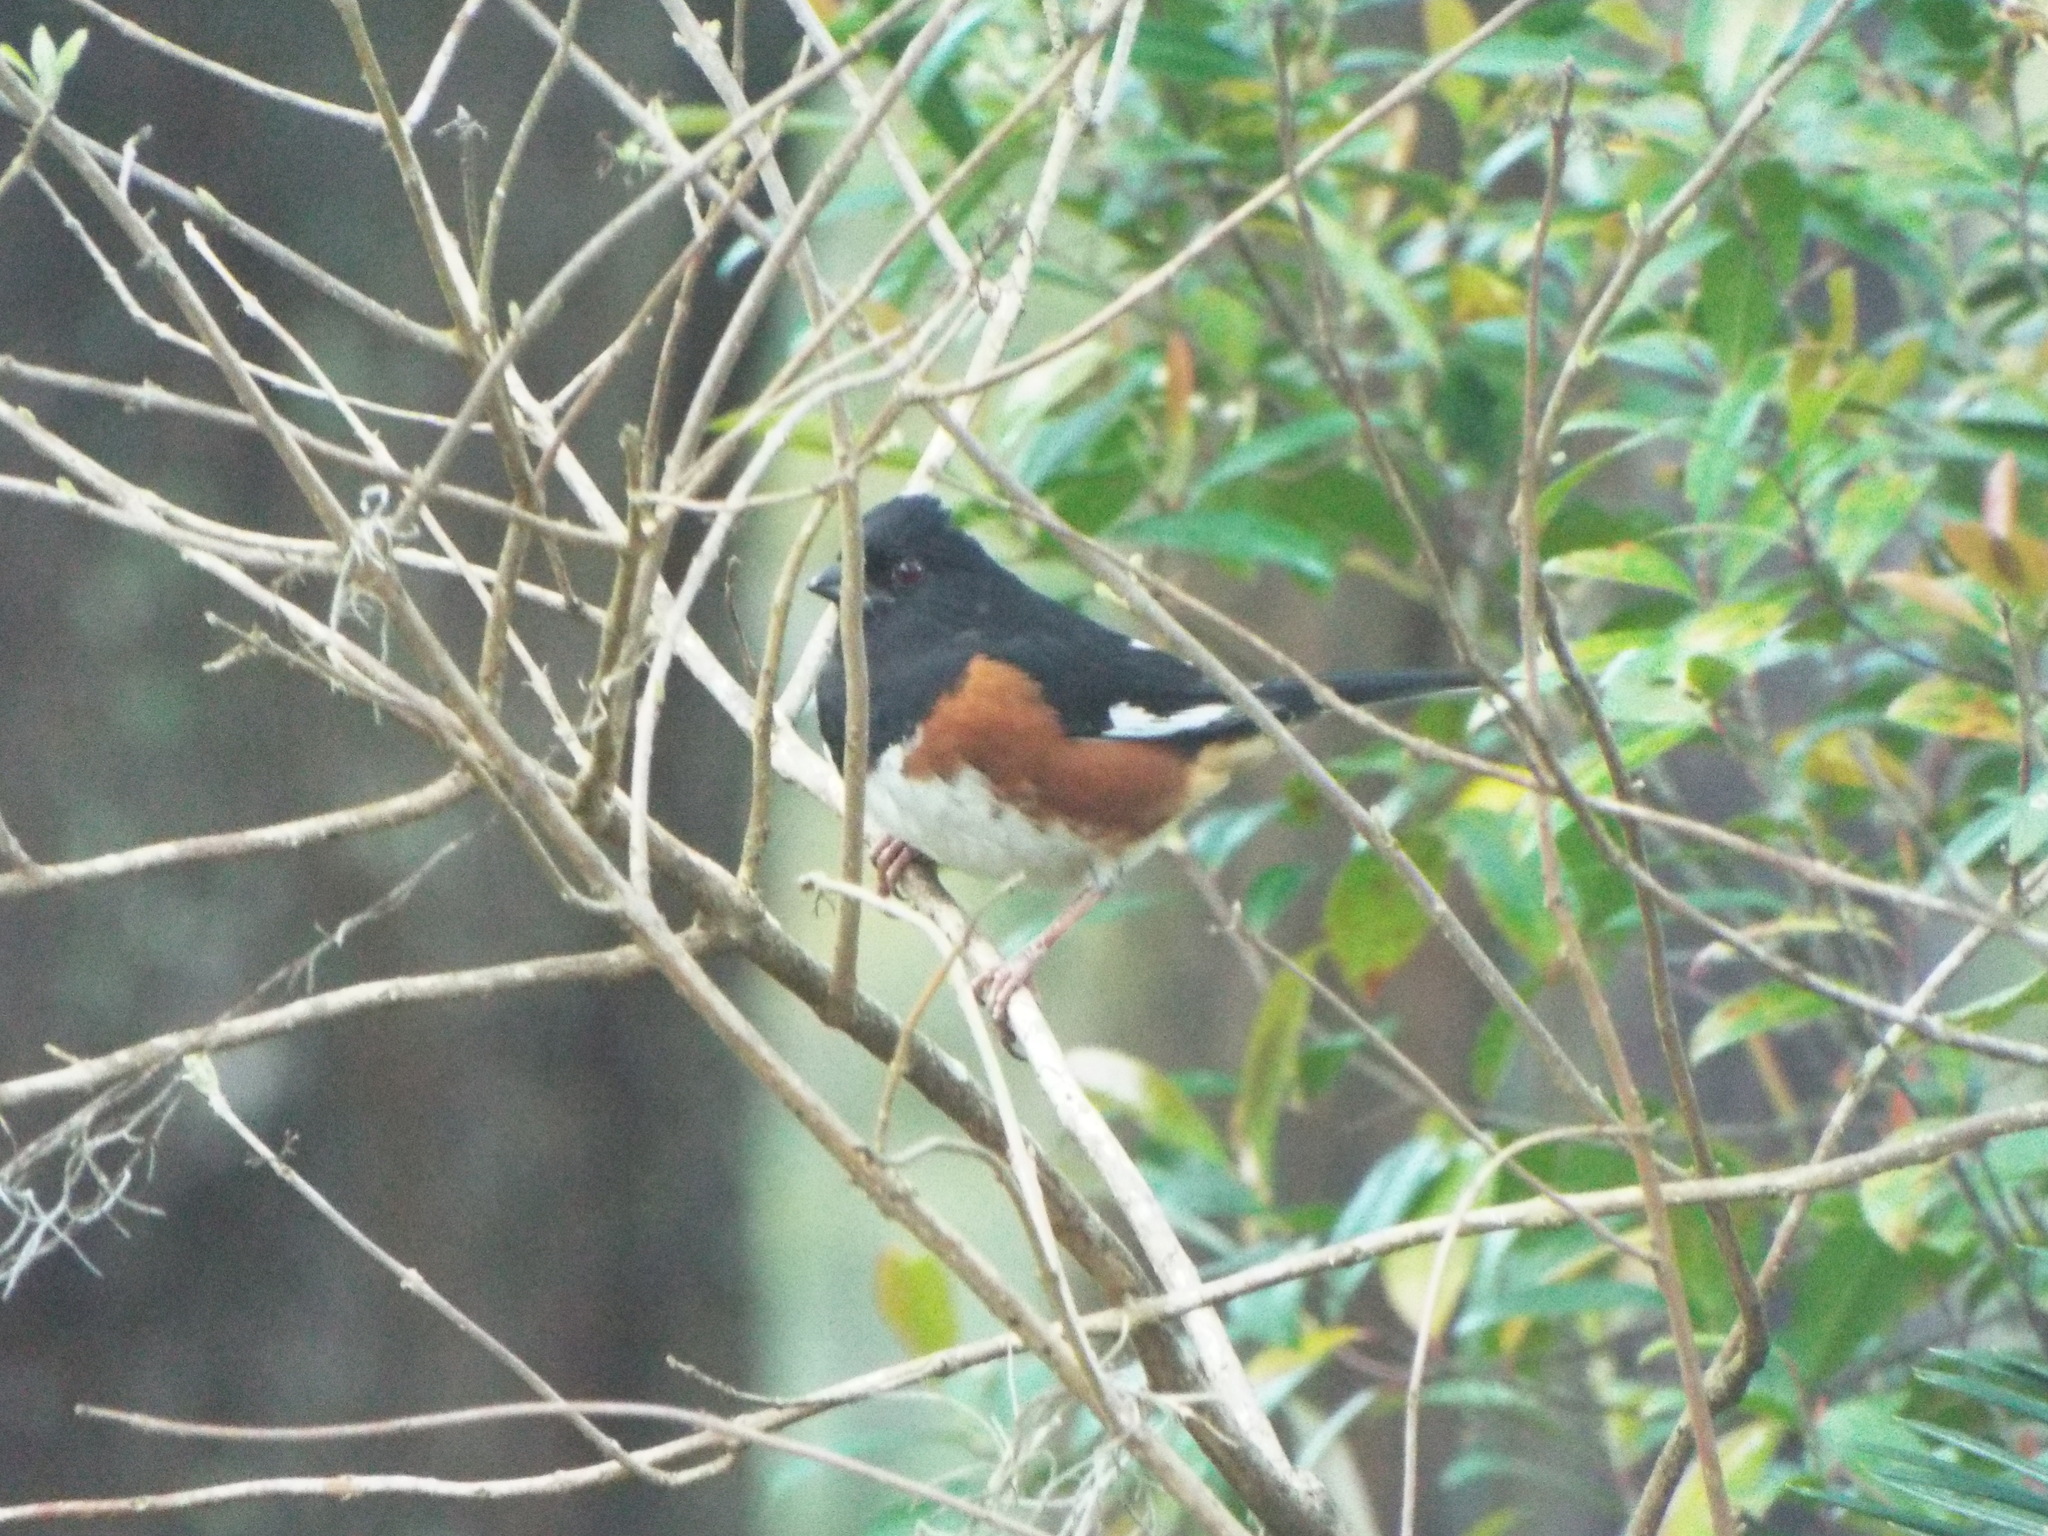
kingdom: Animalia
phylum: Chordata
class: Aves
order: Passeriformes
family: Passerellidae
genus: Pipilo
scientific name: Pipilo erythrophthalmus
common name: Eastern towhee
